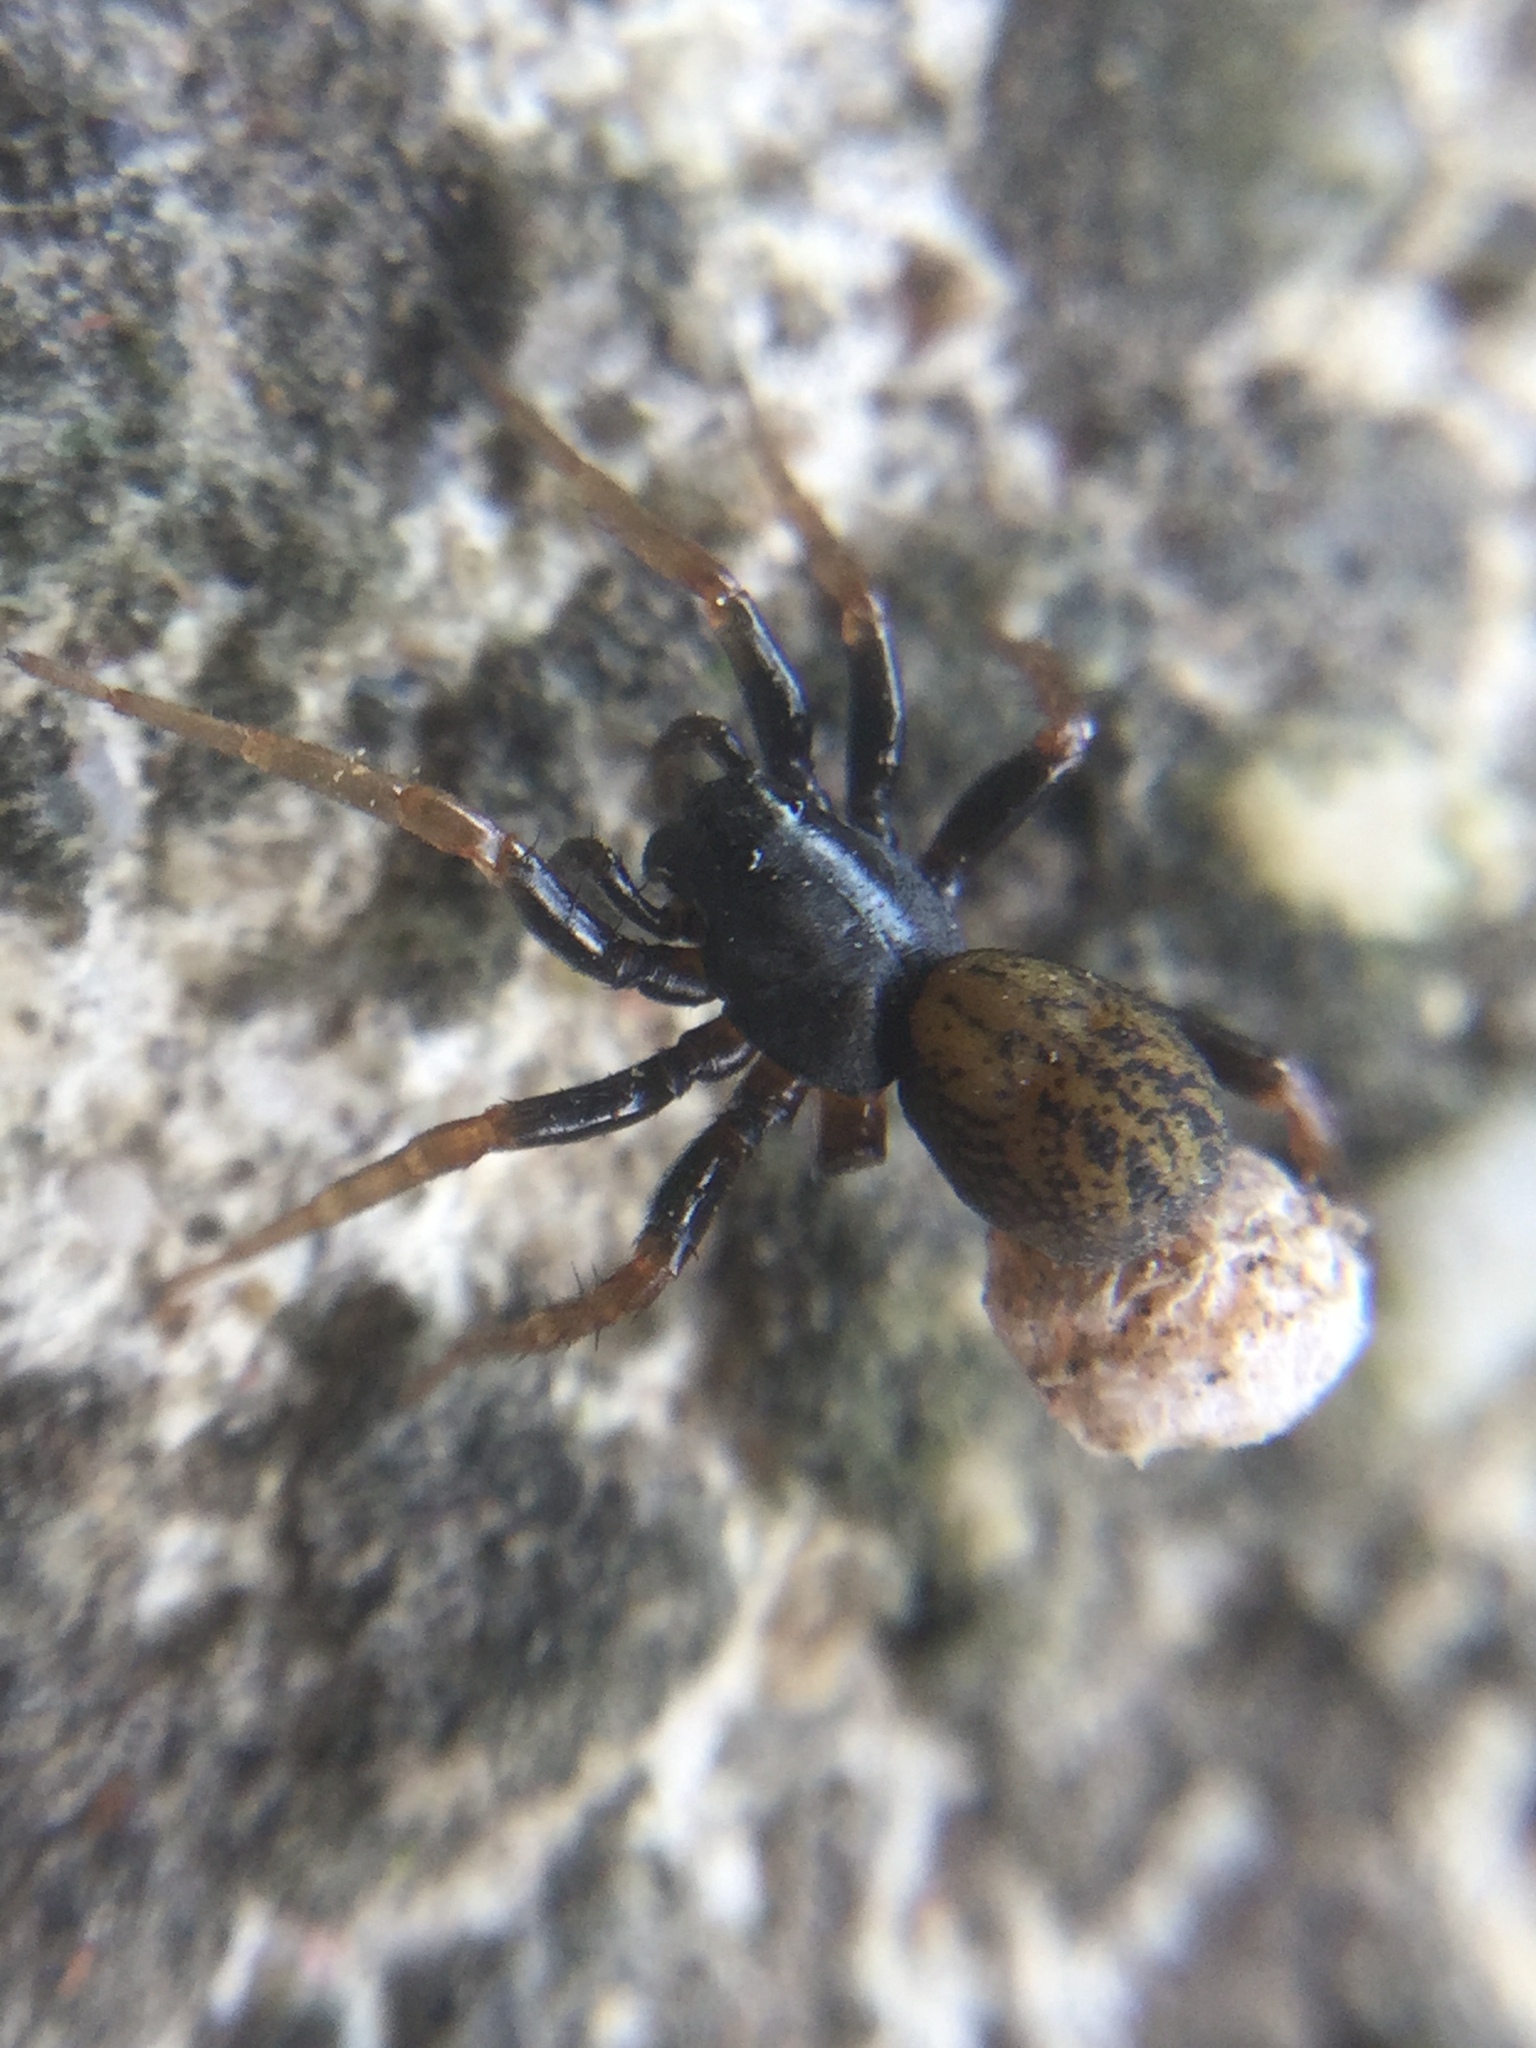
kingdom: Animalia
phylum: Arthropoda
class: Arachnida
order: Araneae
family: Lycosidae
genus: Allocosa
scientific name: Allocosa funerea
